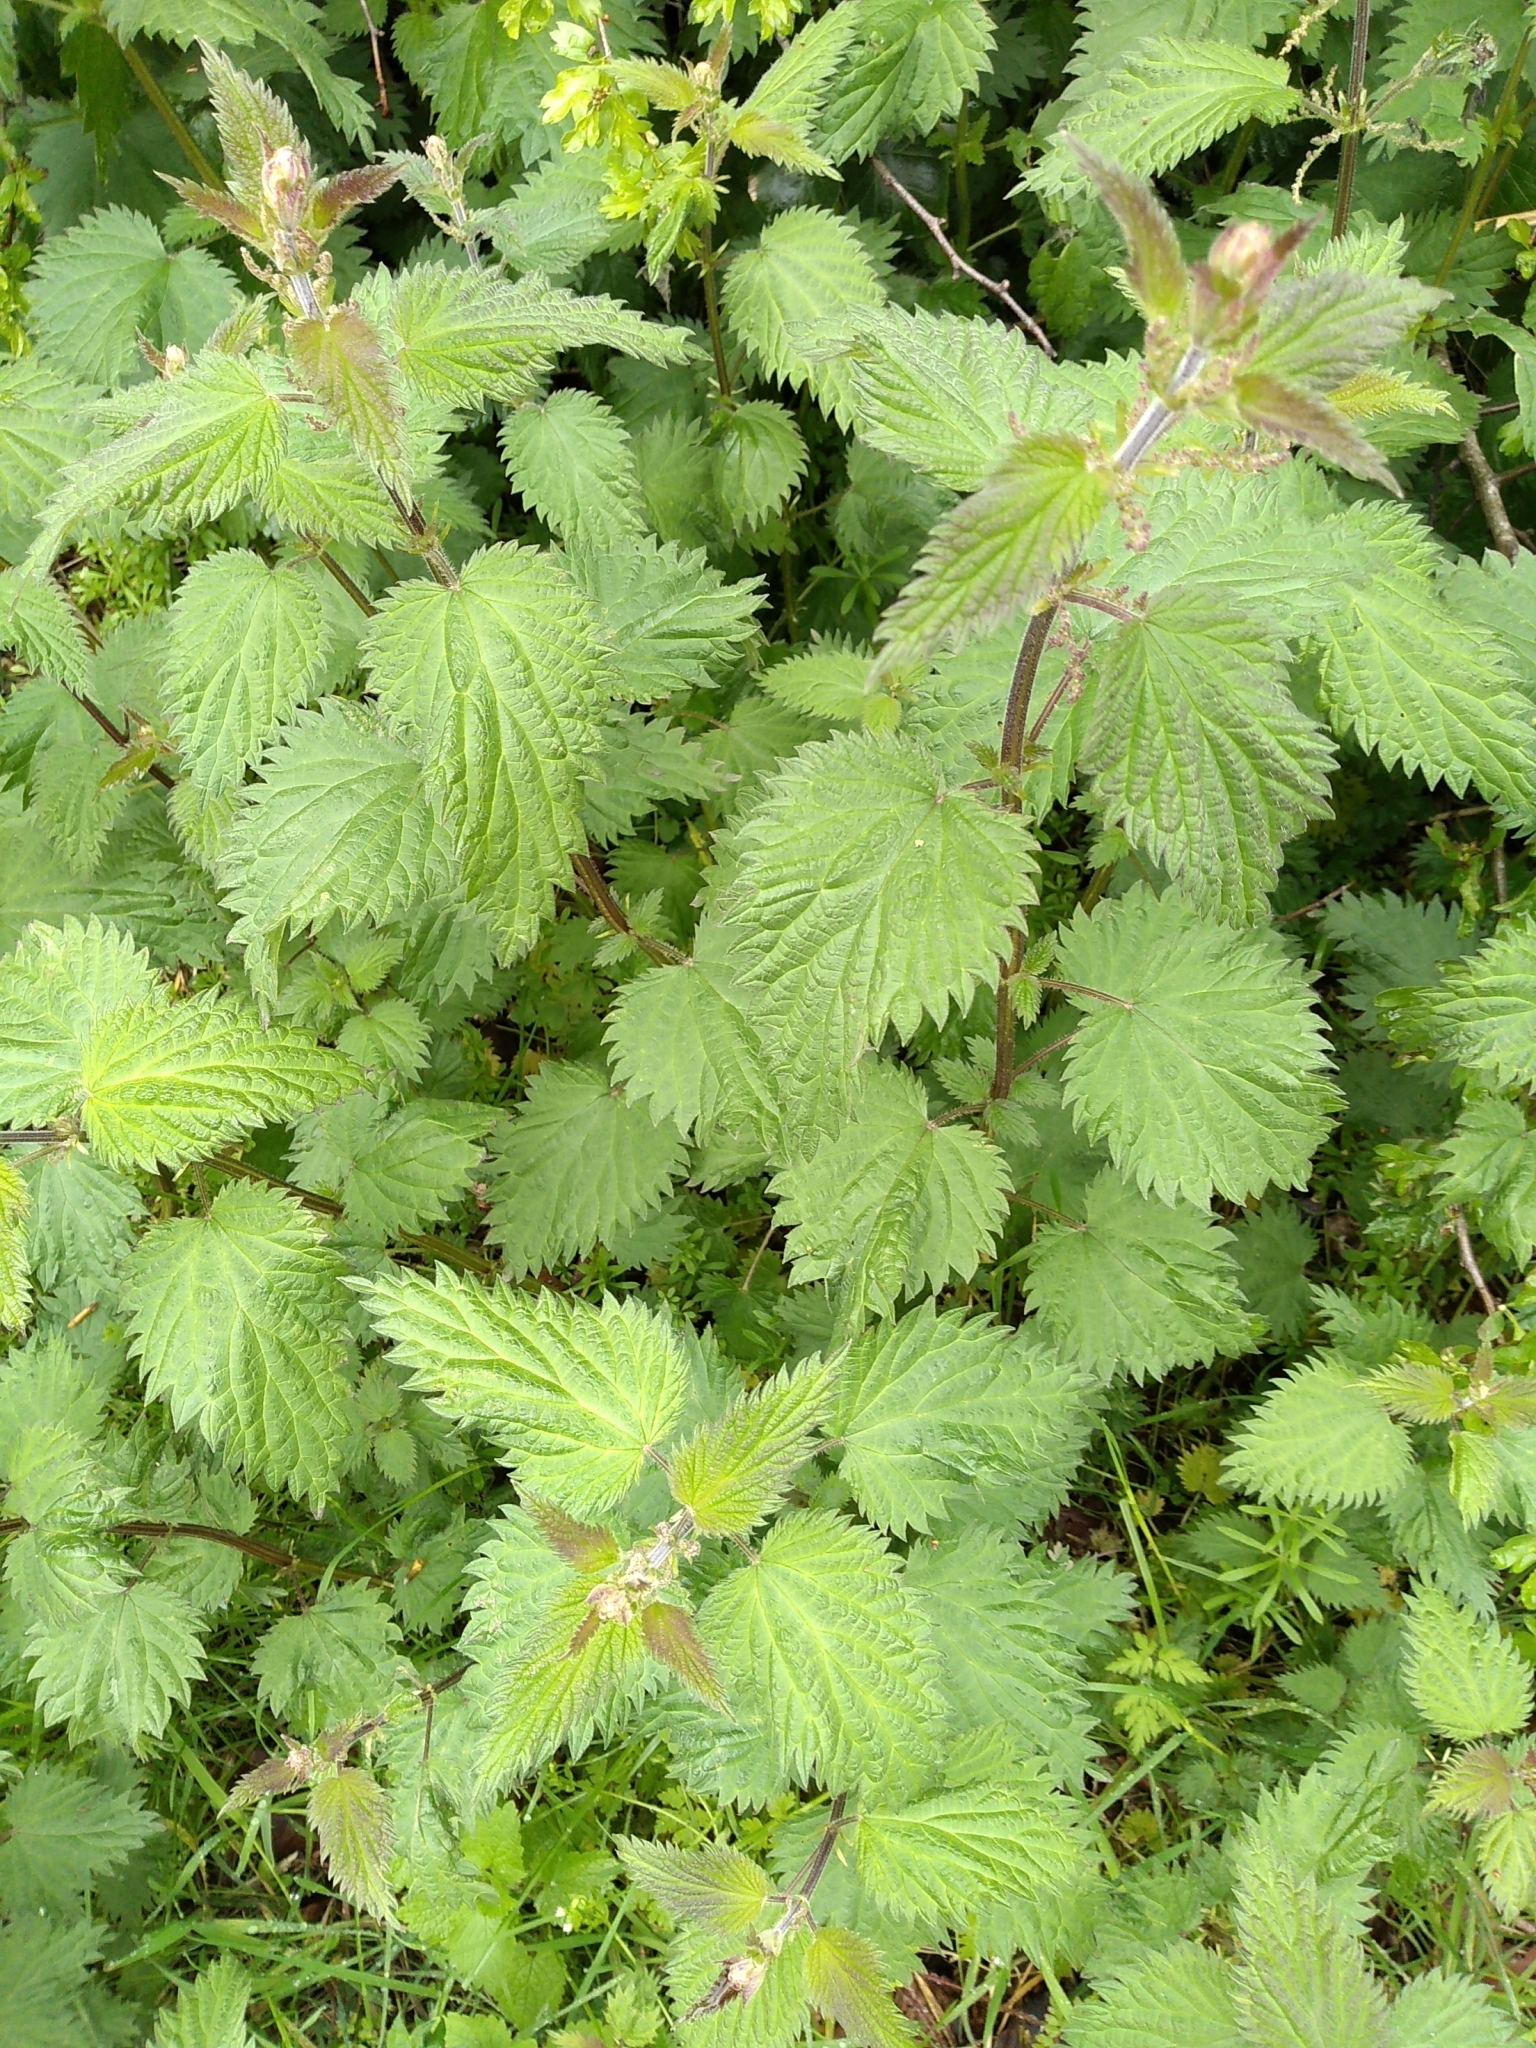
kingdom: Plantae
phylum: Tracheophyta
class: Magnoliopsida
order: Rosales
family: Urticaceae
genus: Urtica
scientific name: Urtica dioica
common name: Common nettle
